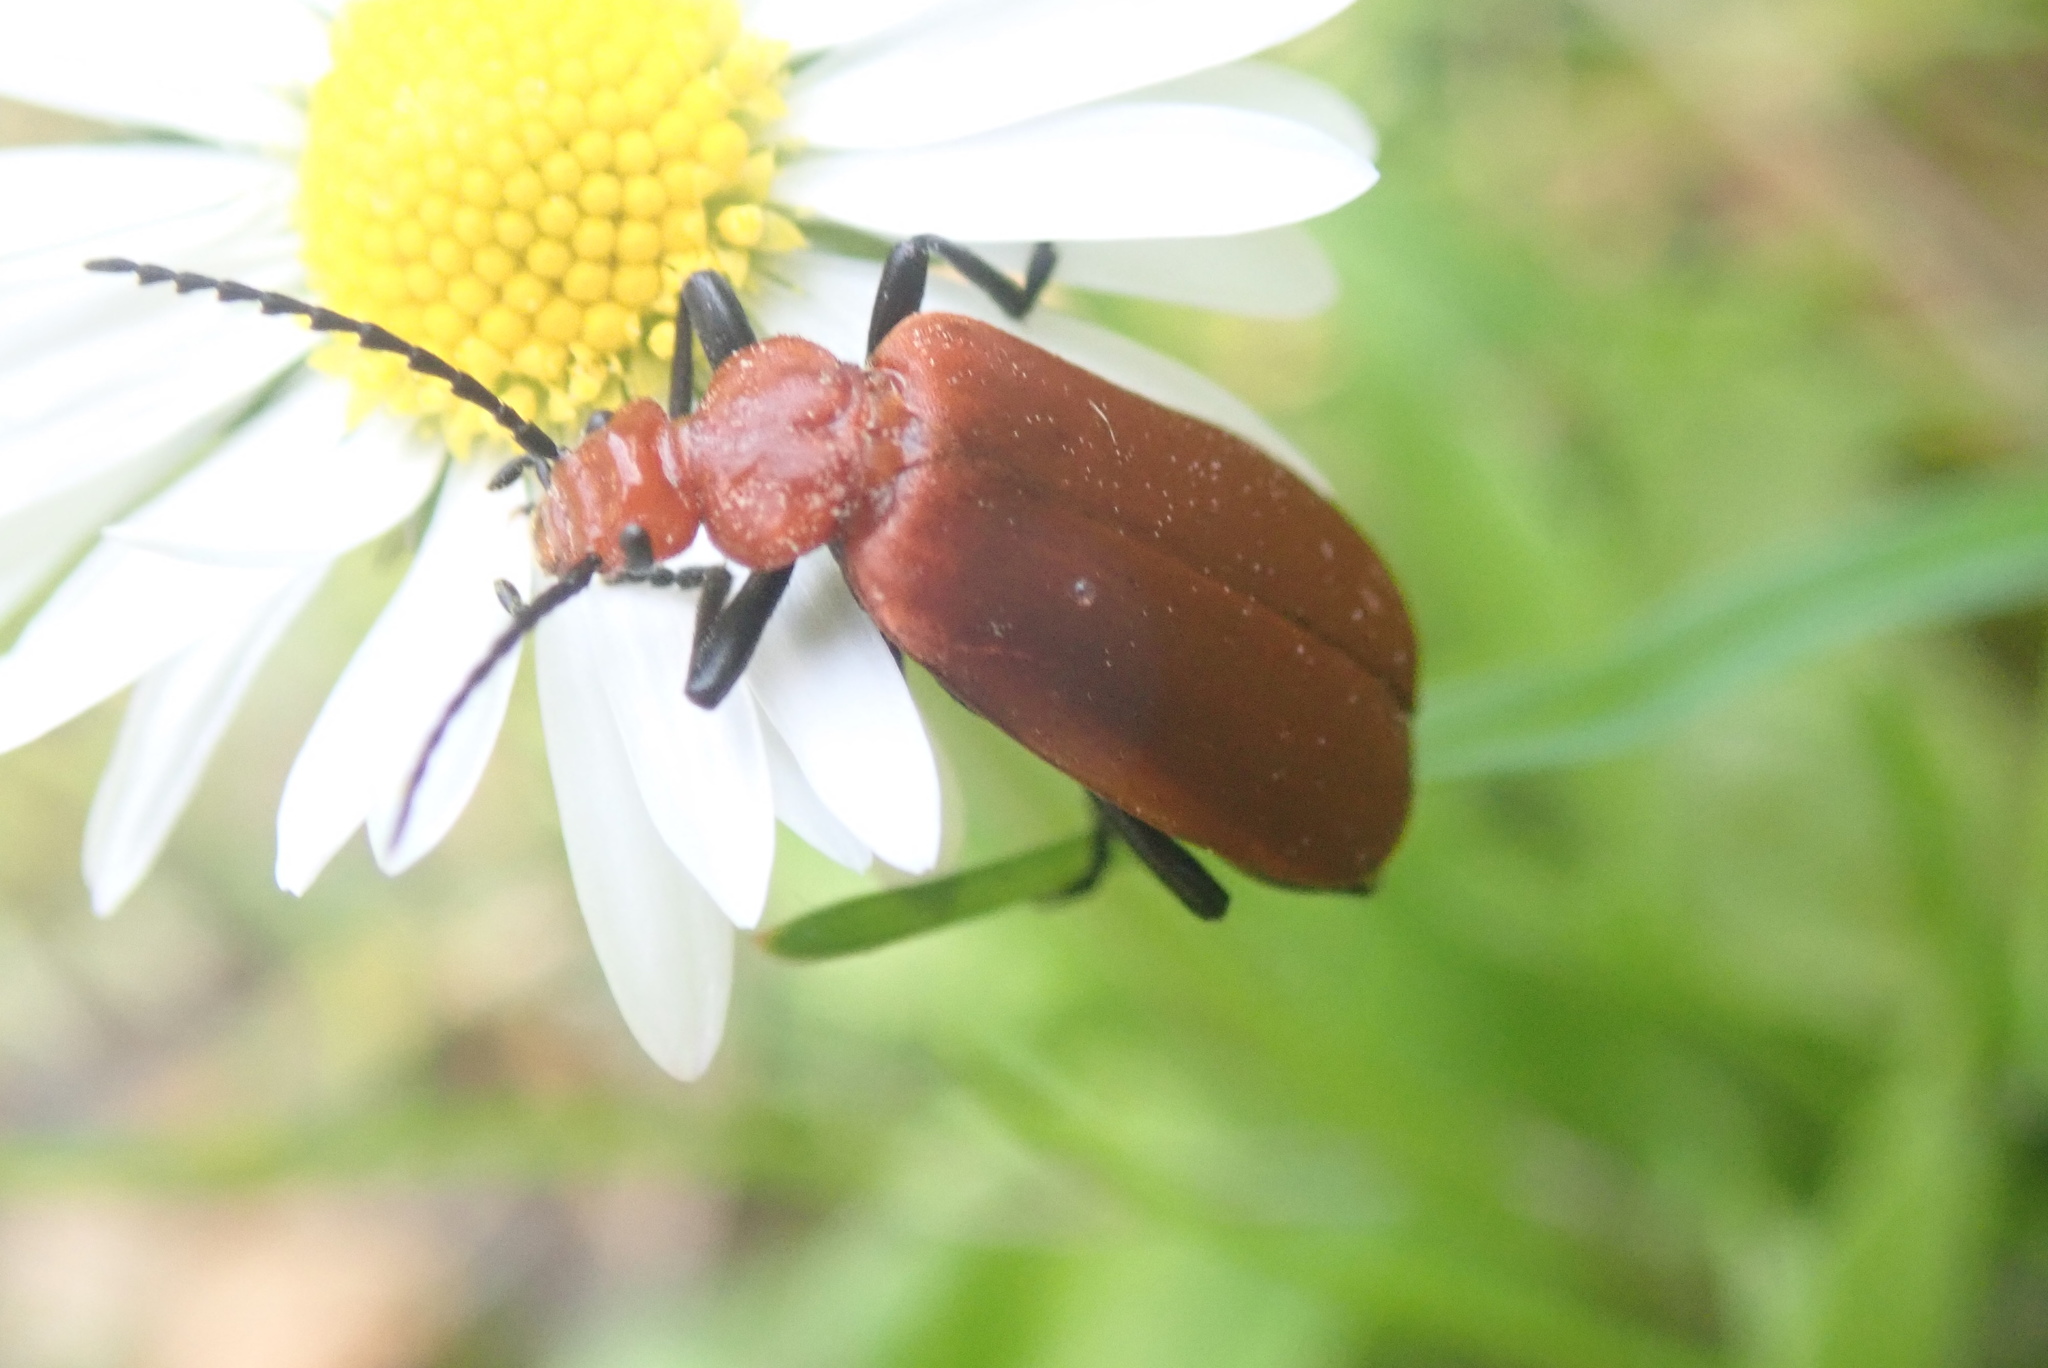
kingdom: Animalia
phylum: Arthropoda
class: Insecta
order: Coleoptera
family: Pyrochroidae
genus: Pyrochroa
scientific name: Pyrochroa serraticornis
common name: Red-headed cardinal beetle
